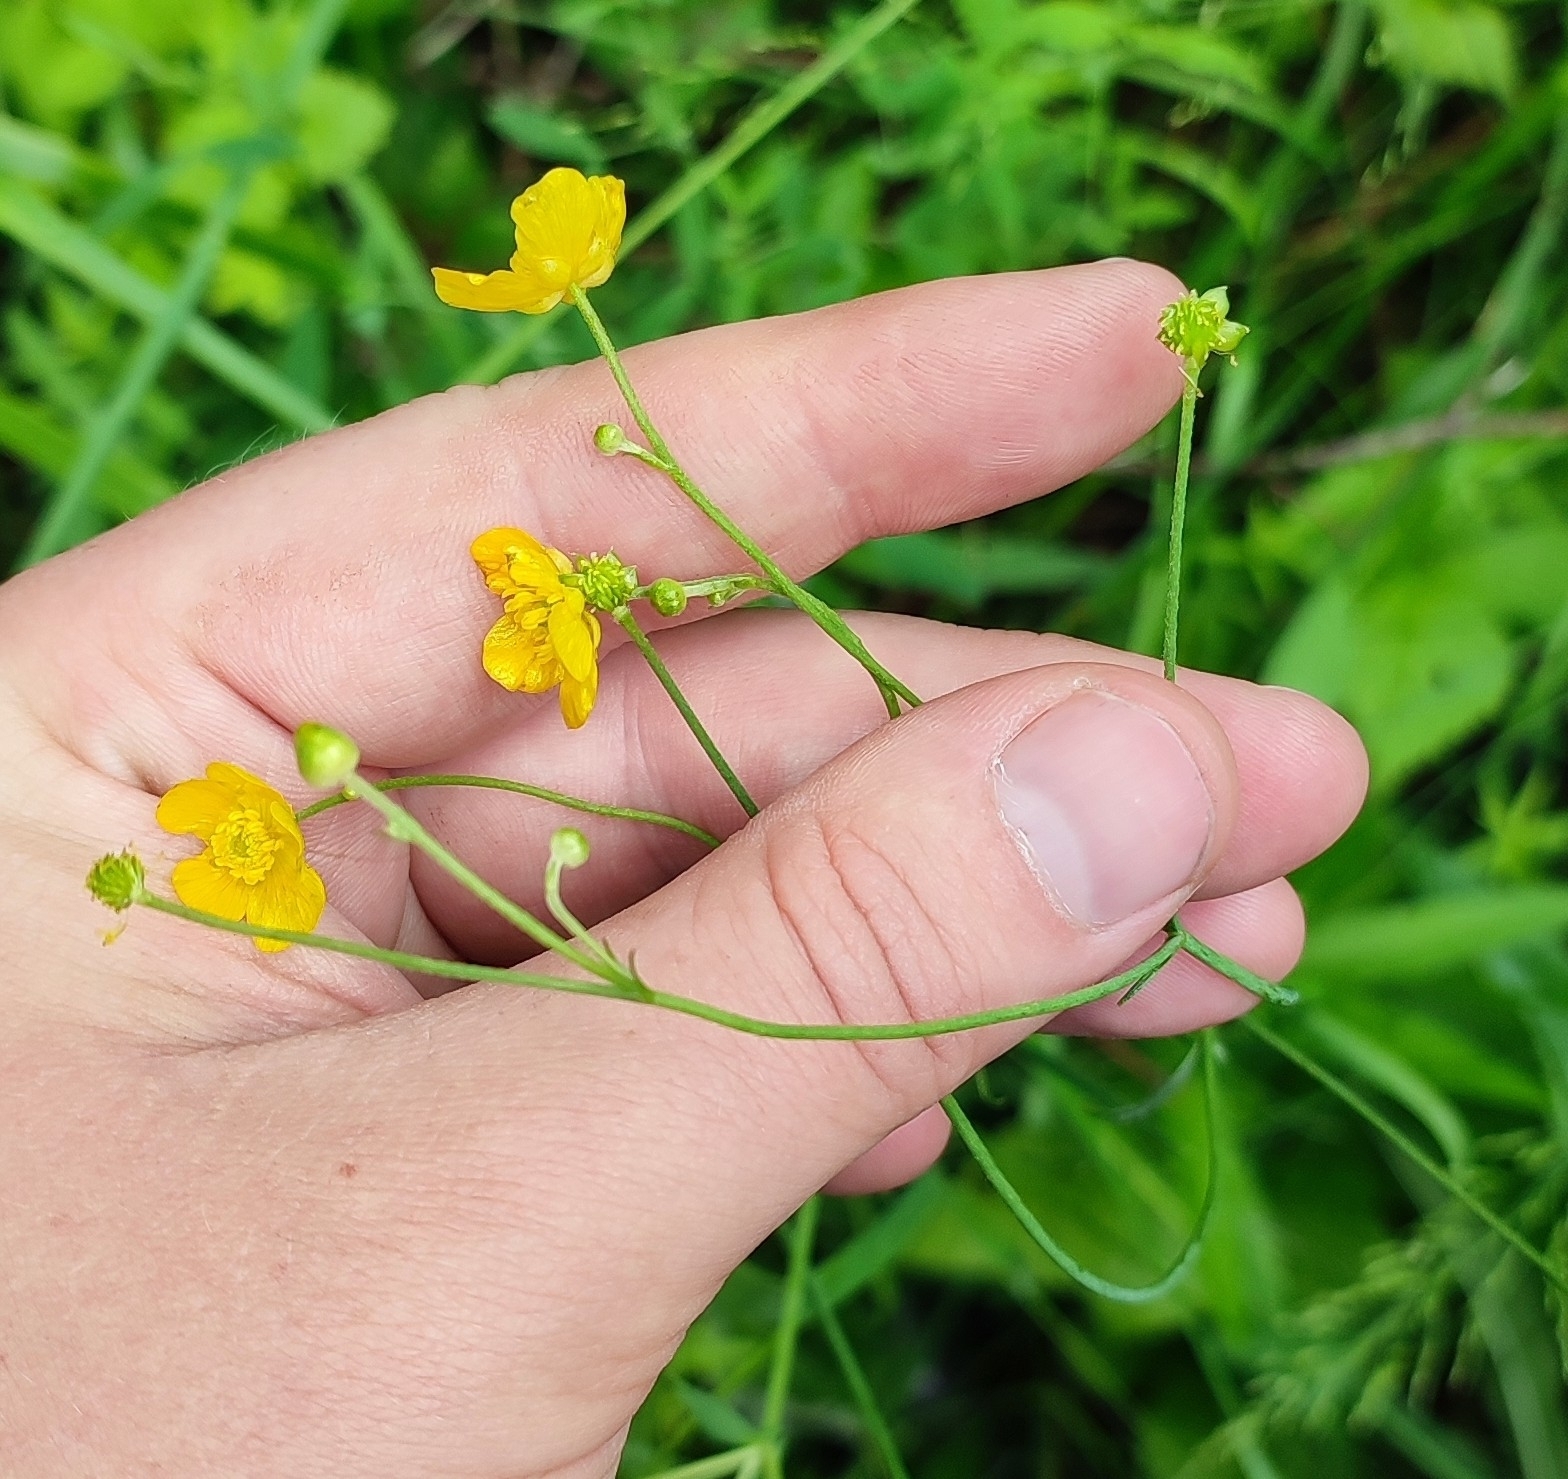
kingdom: Plantae
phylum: Tracheophyta
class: Magnoliopsida
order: Ranunculales
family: Ranunculaceae
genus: Ranunculus
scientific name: Ranunculus acris
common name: Meadow buttercup
